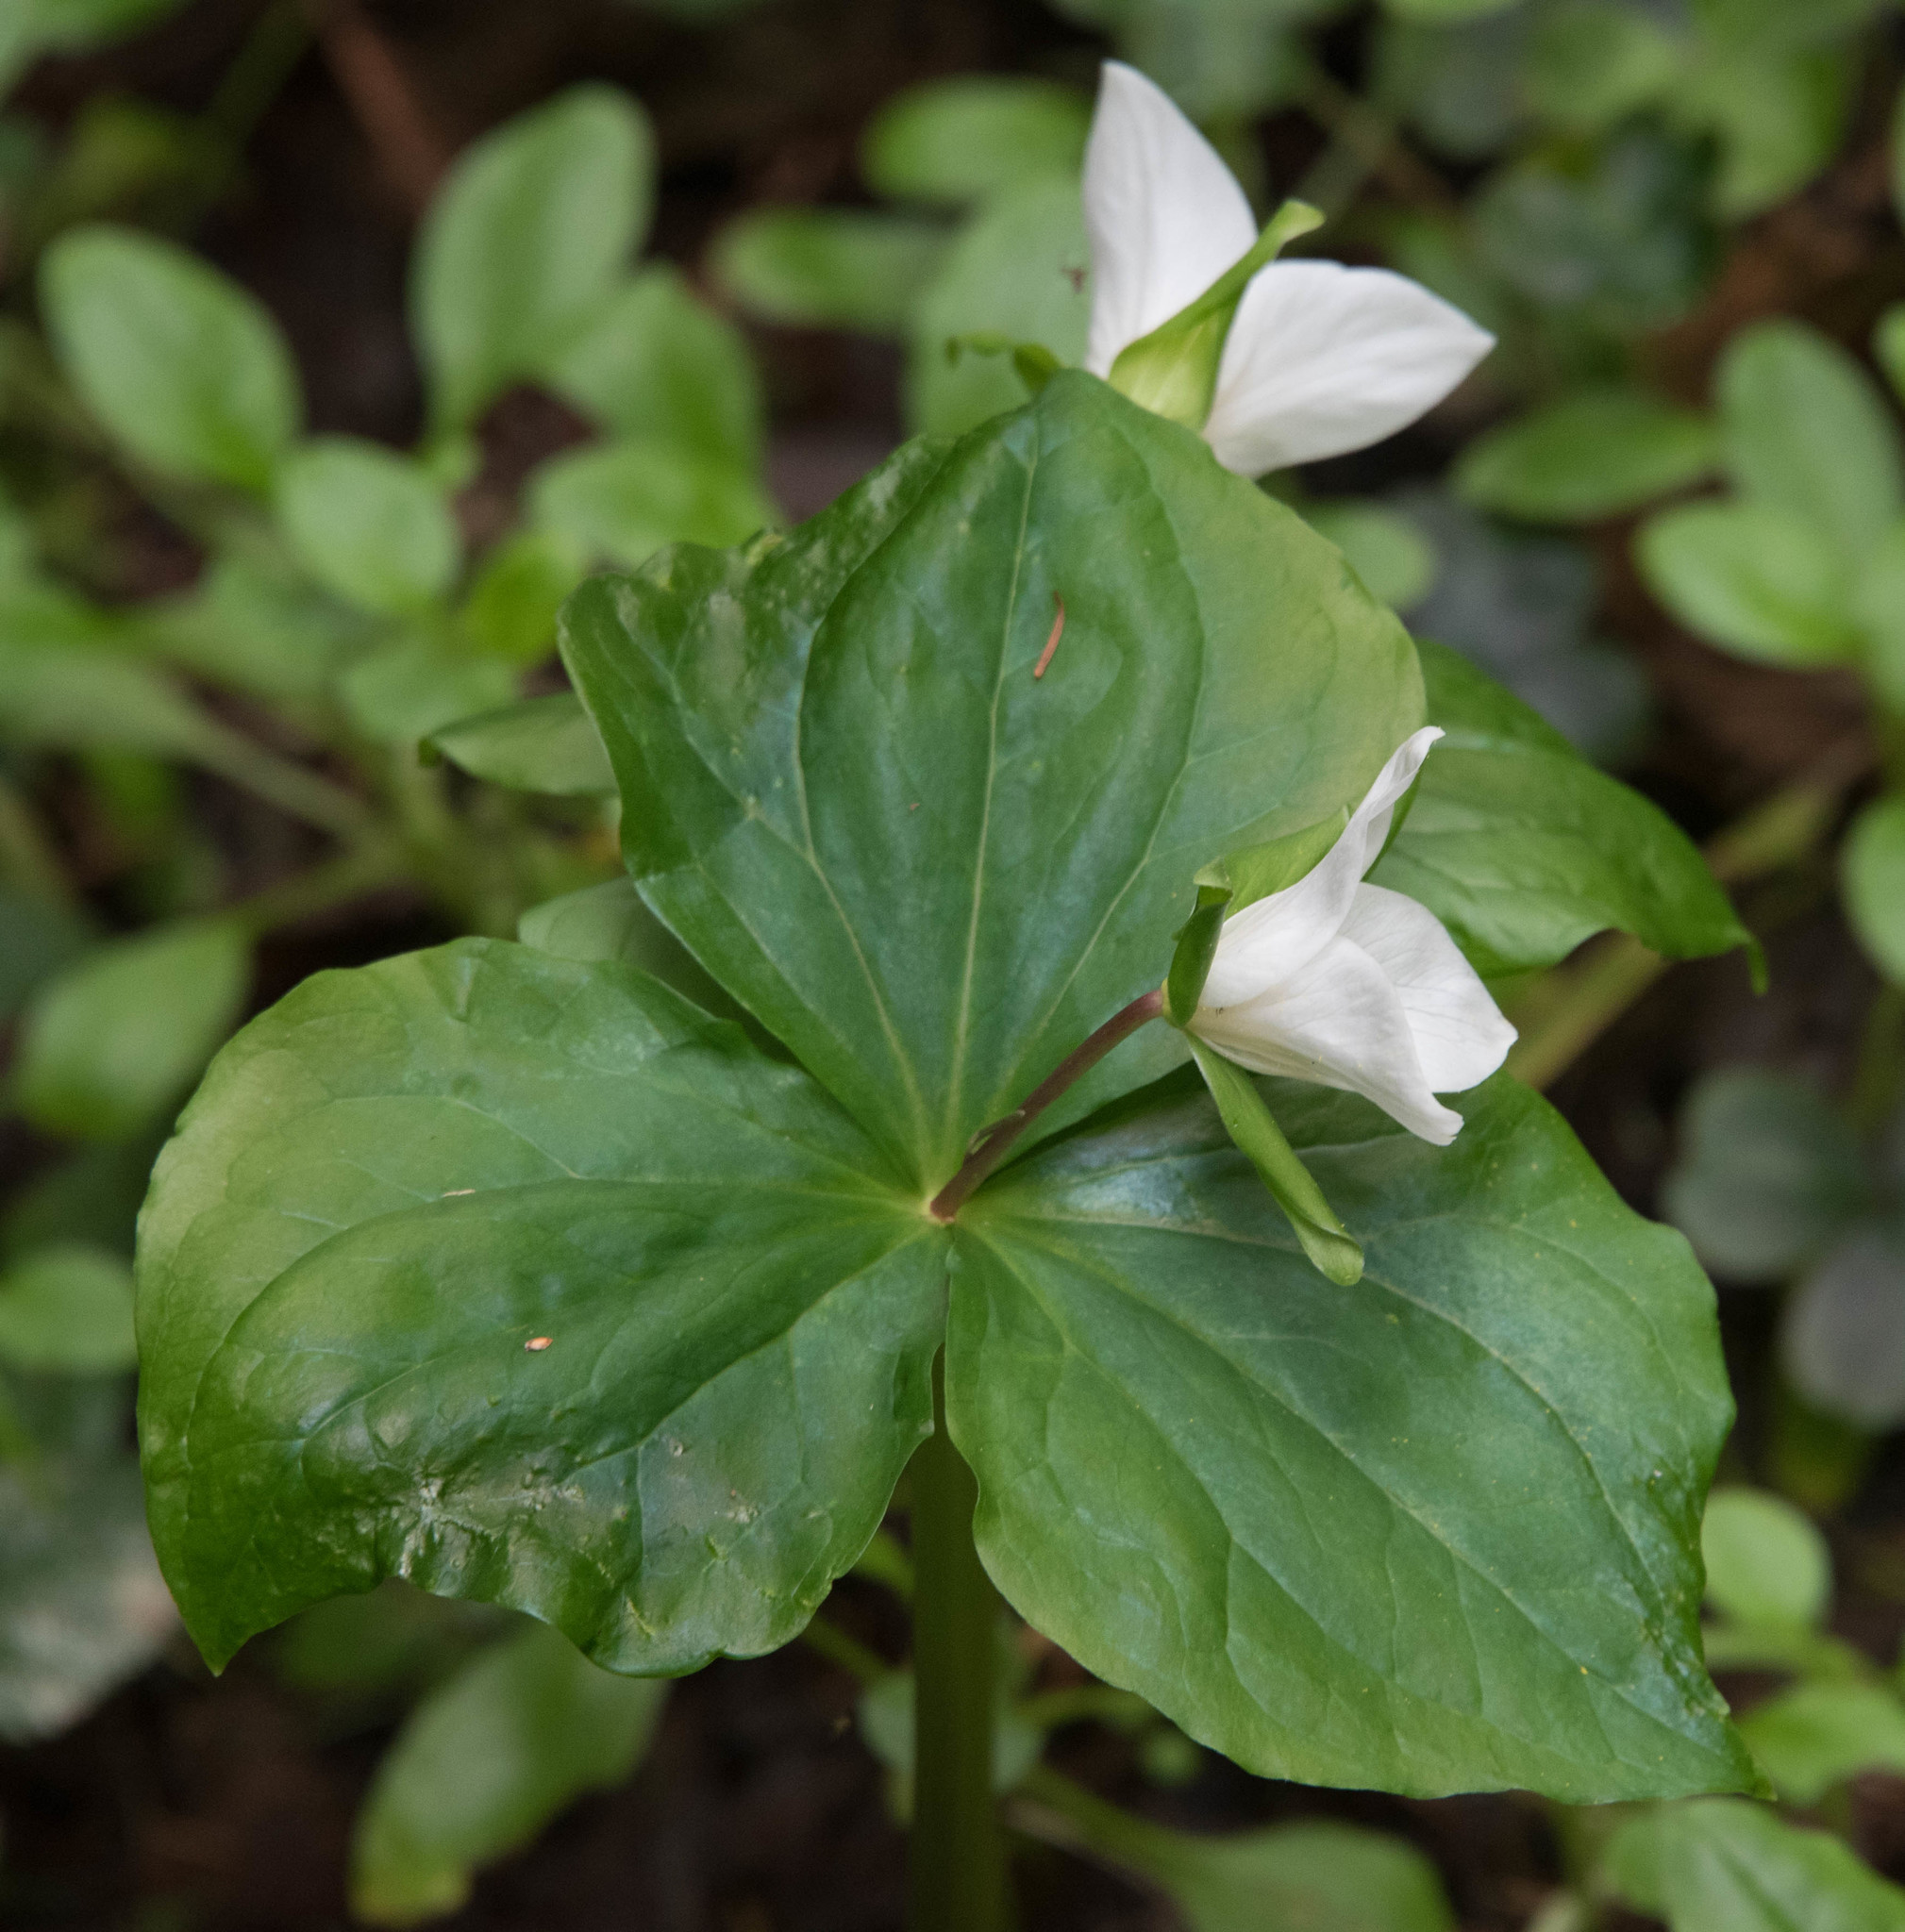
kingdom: Plantae
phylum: Tracheophyta
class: Liliopsida
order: Liliales
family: Melanthiaceae
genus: Trillium
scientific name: Trillium ovatum
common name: Pacific trillium
